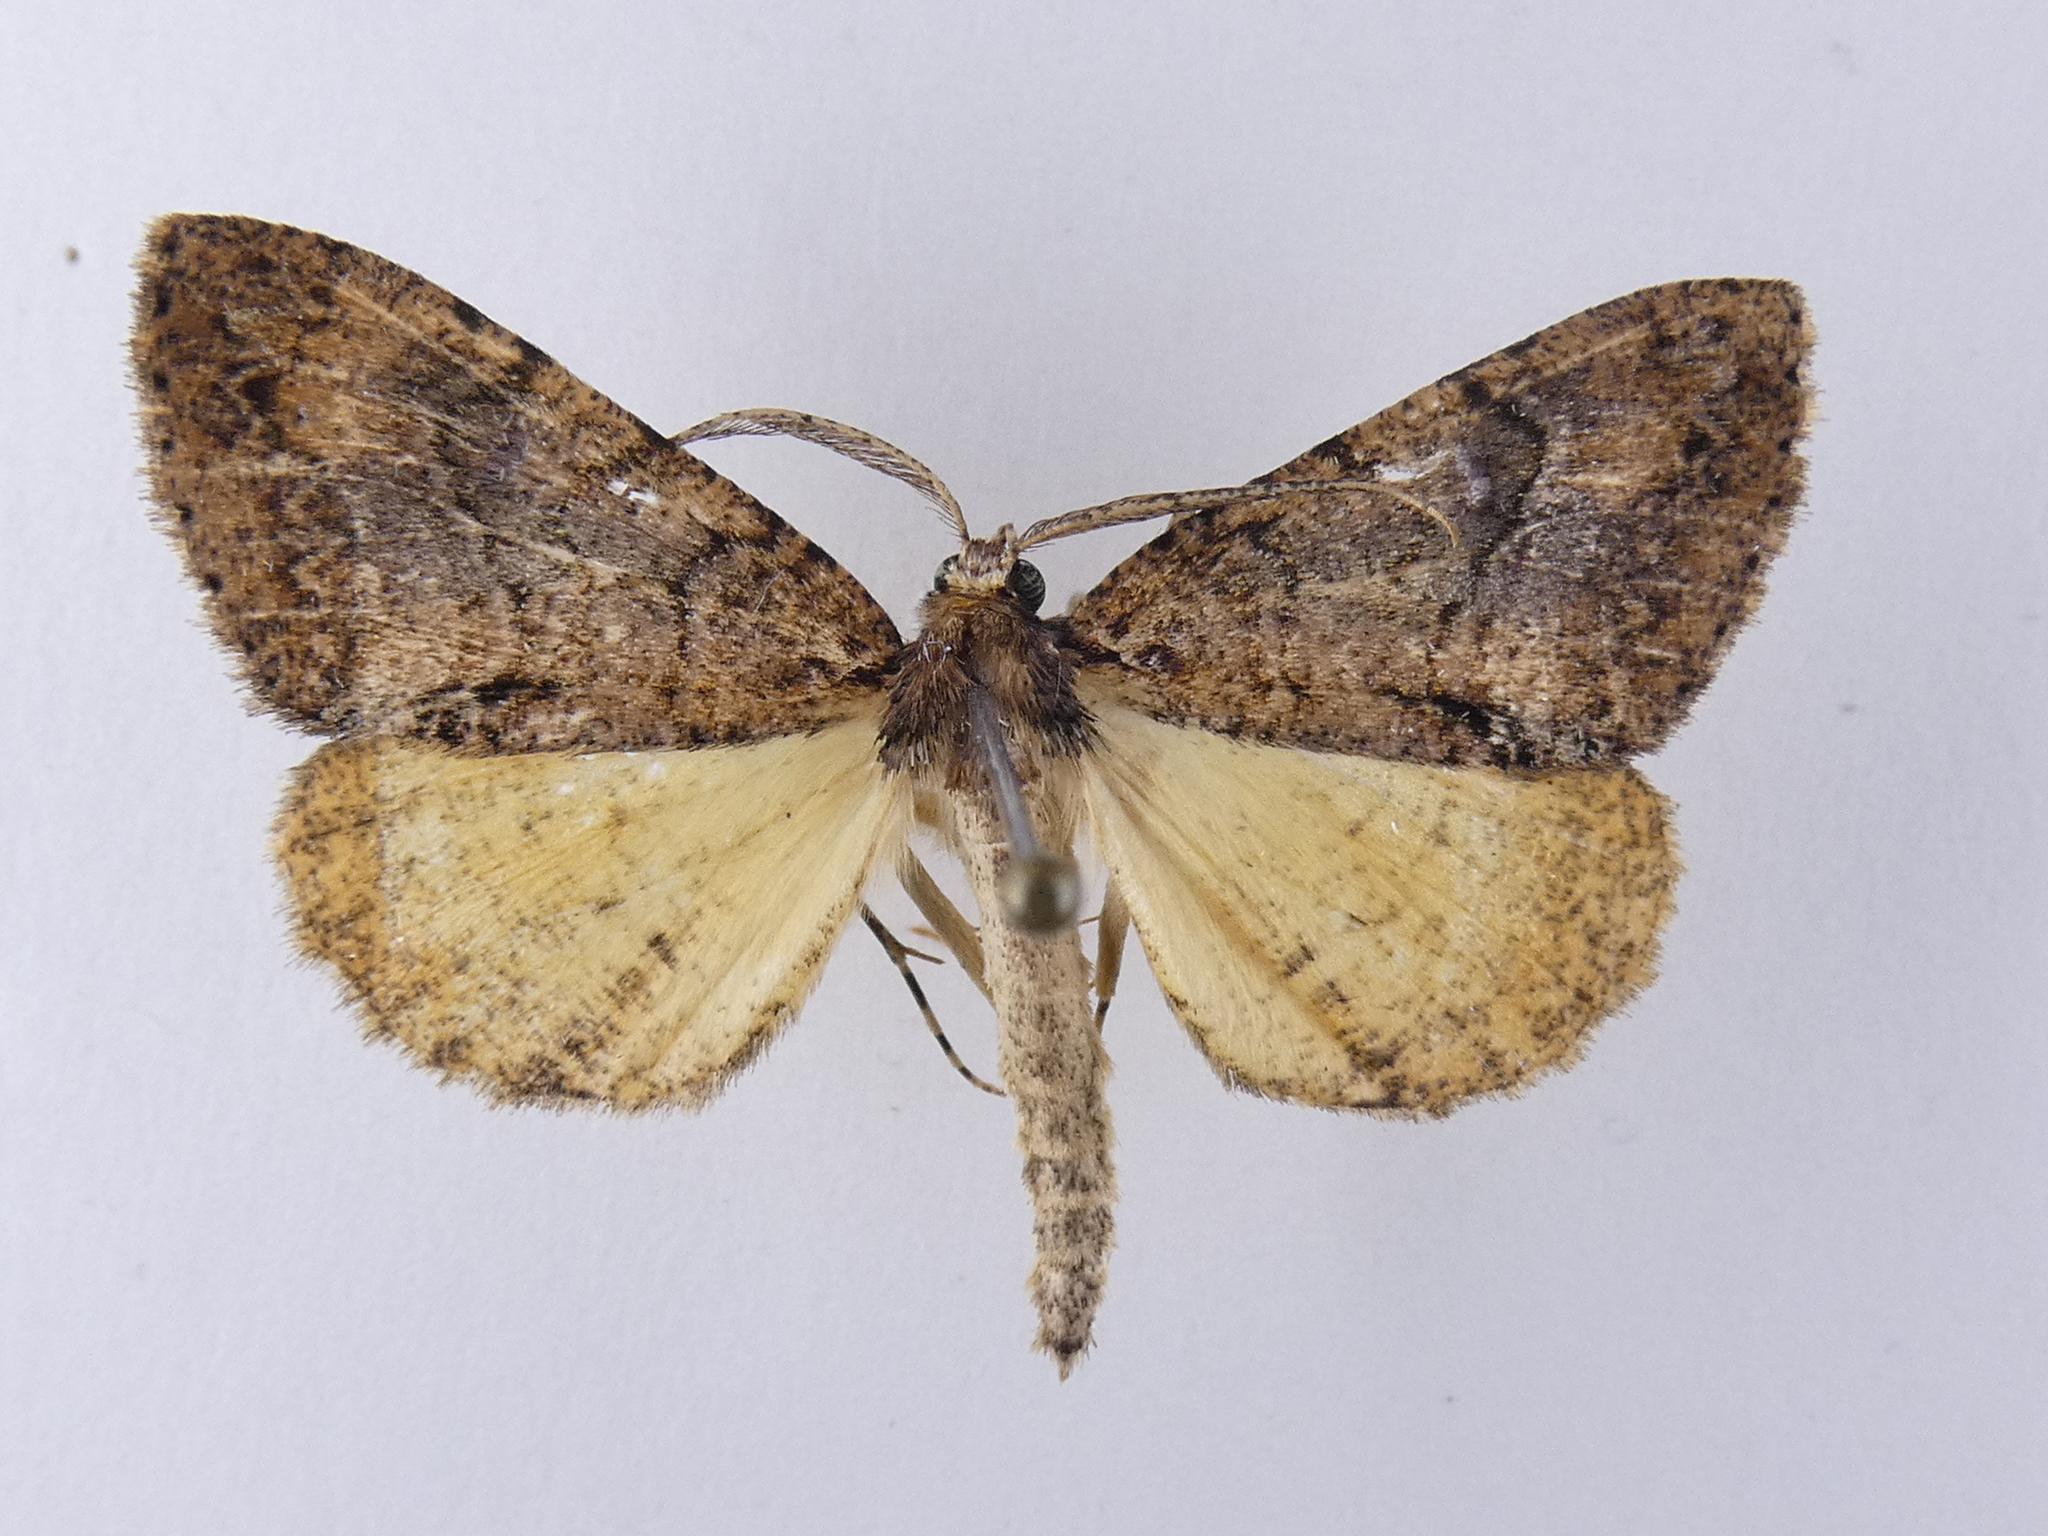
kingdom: Animalia
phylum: Arthropoda
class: Insecta
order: Lepidoptera
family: Geometridae
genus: Pseudocoremia
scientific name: Pseudocoremia suavis
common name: Common forest looper
